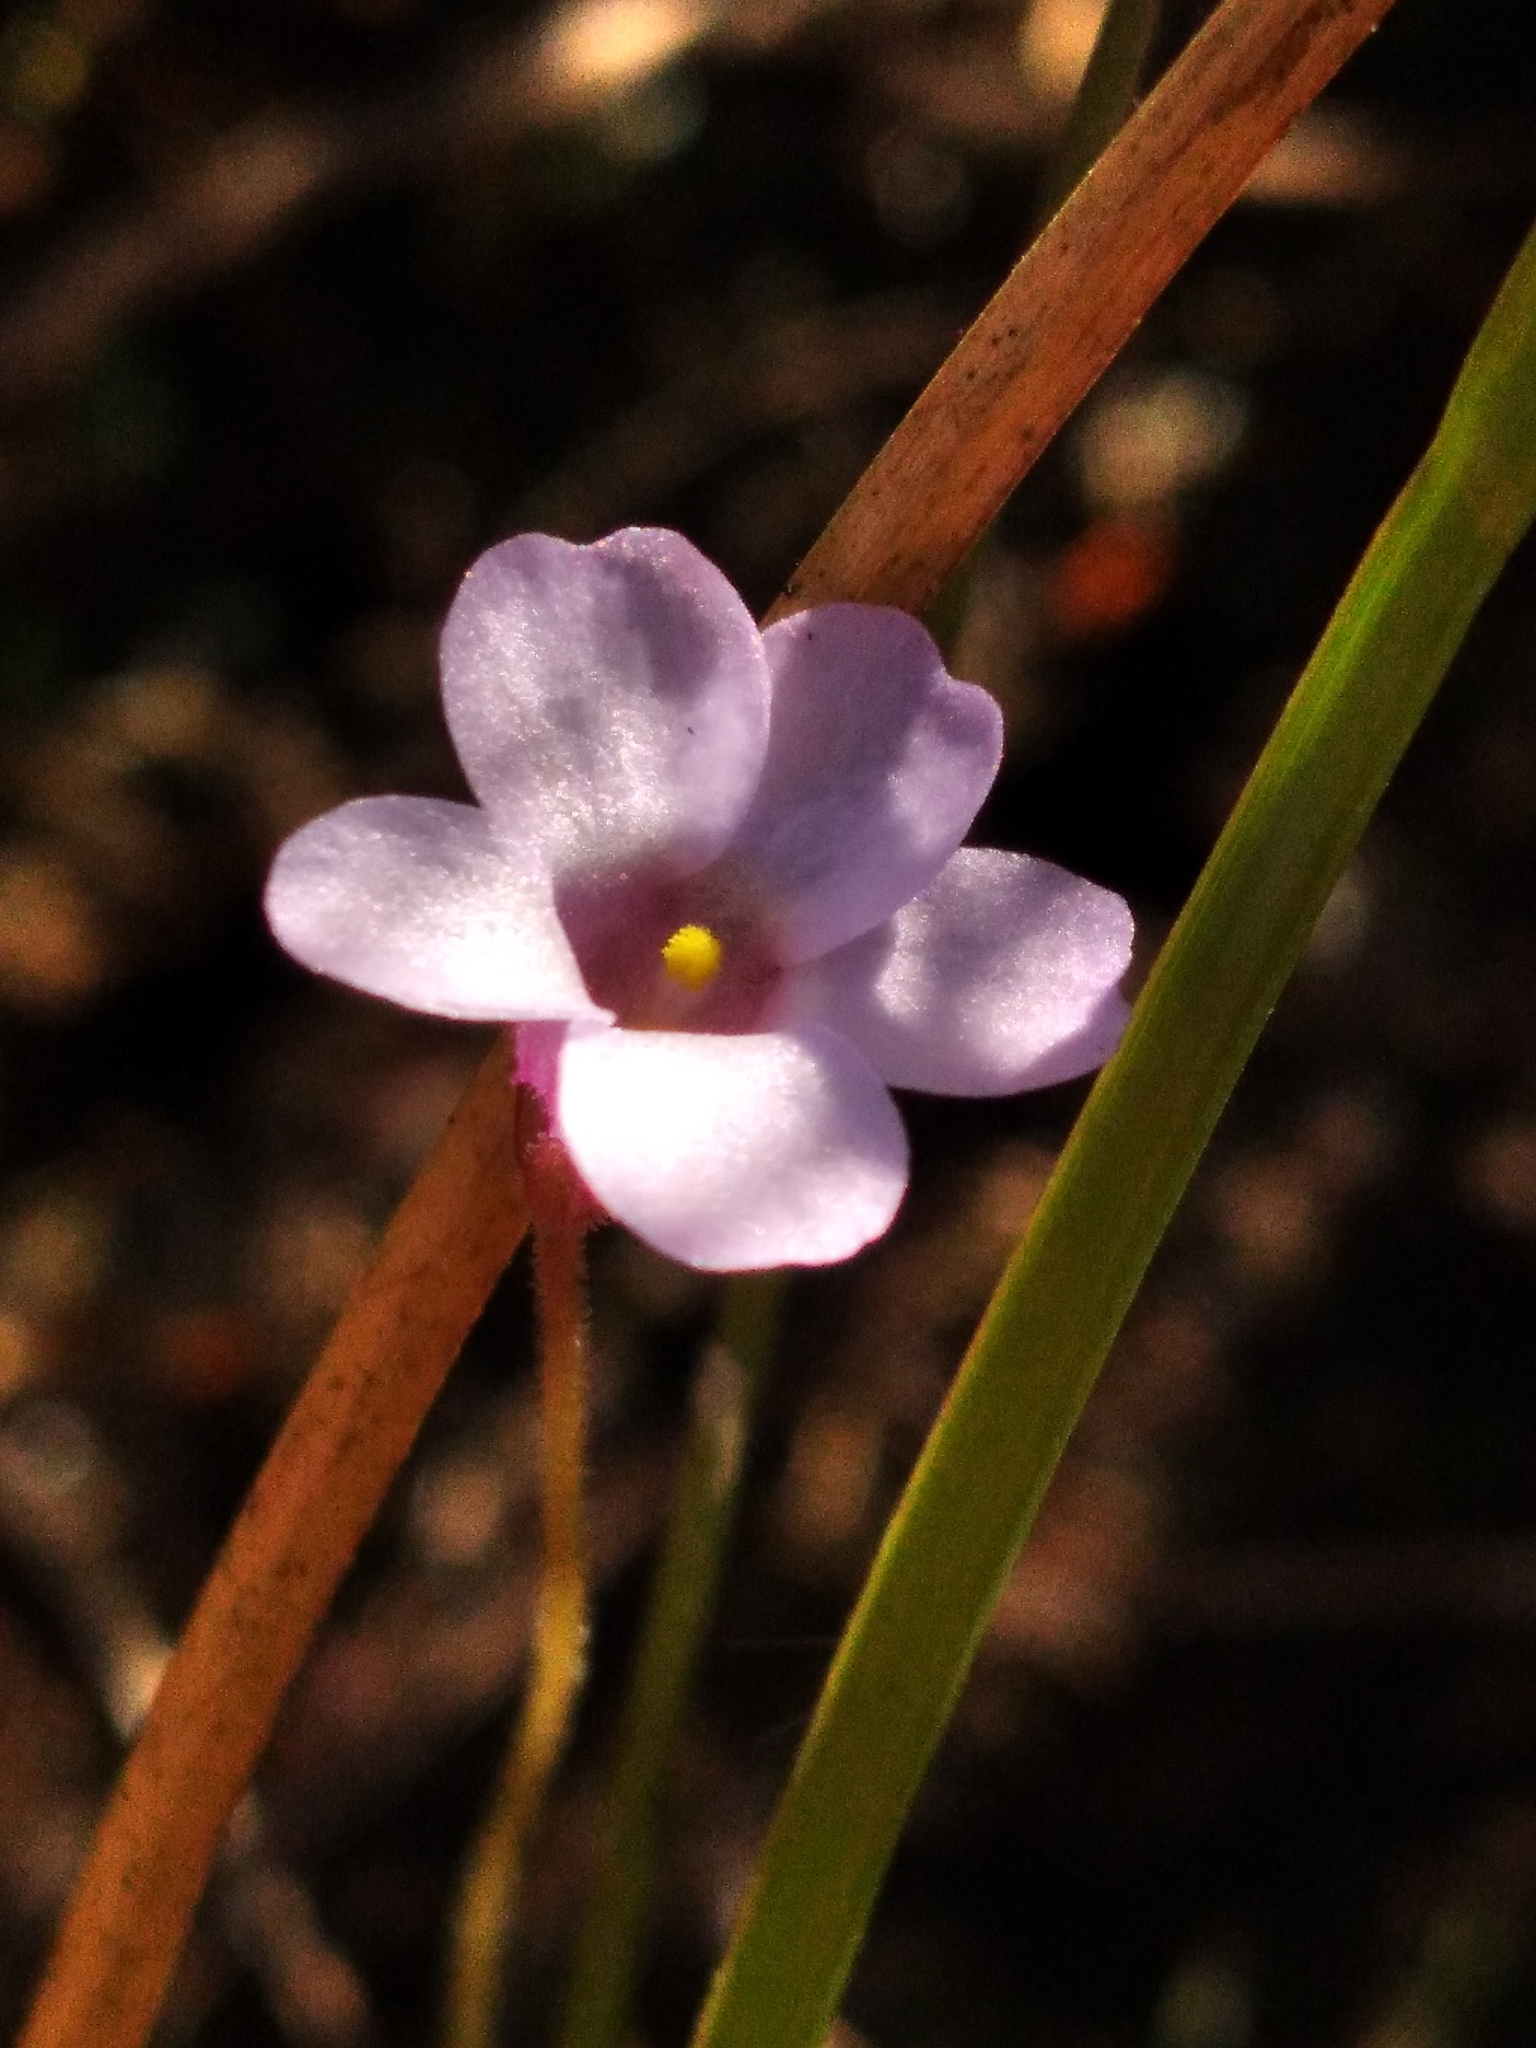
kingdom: Plantae
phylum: Tracheophyta
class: Magnoliopsida
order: Lamiales
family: Lentibulariaceae
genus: Pinguicula
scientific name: Pinguicula pumila
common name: Small butterwort
